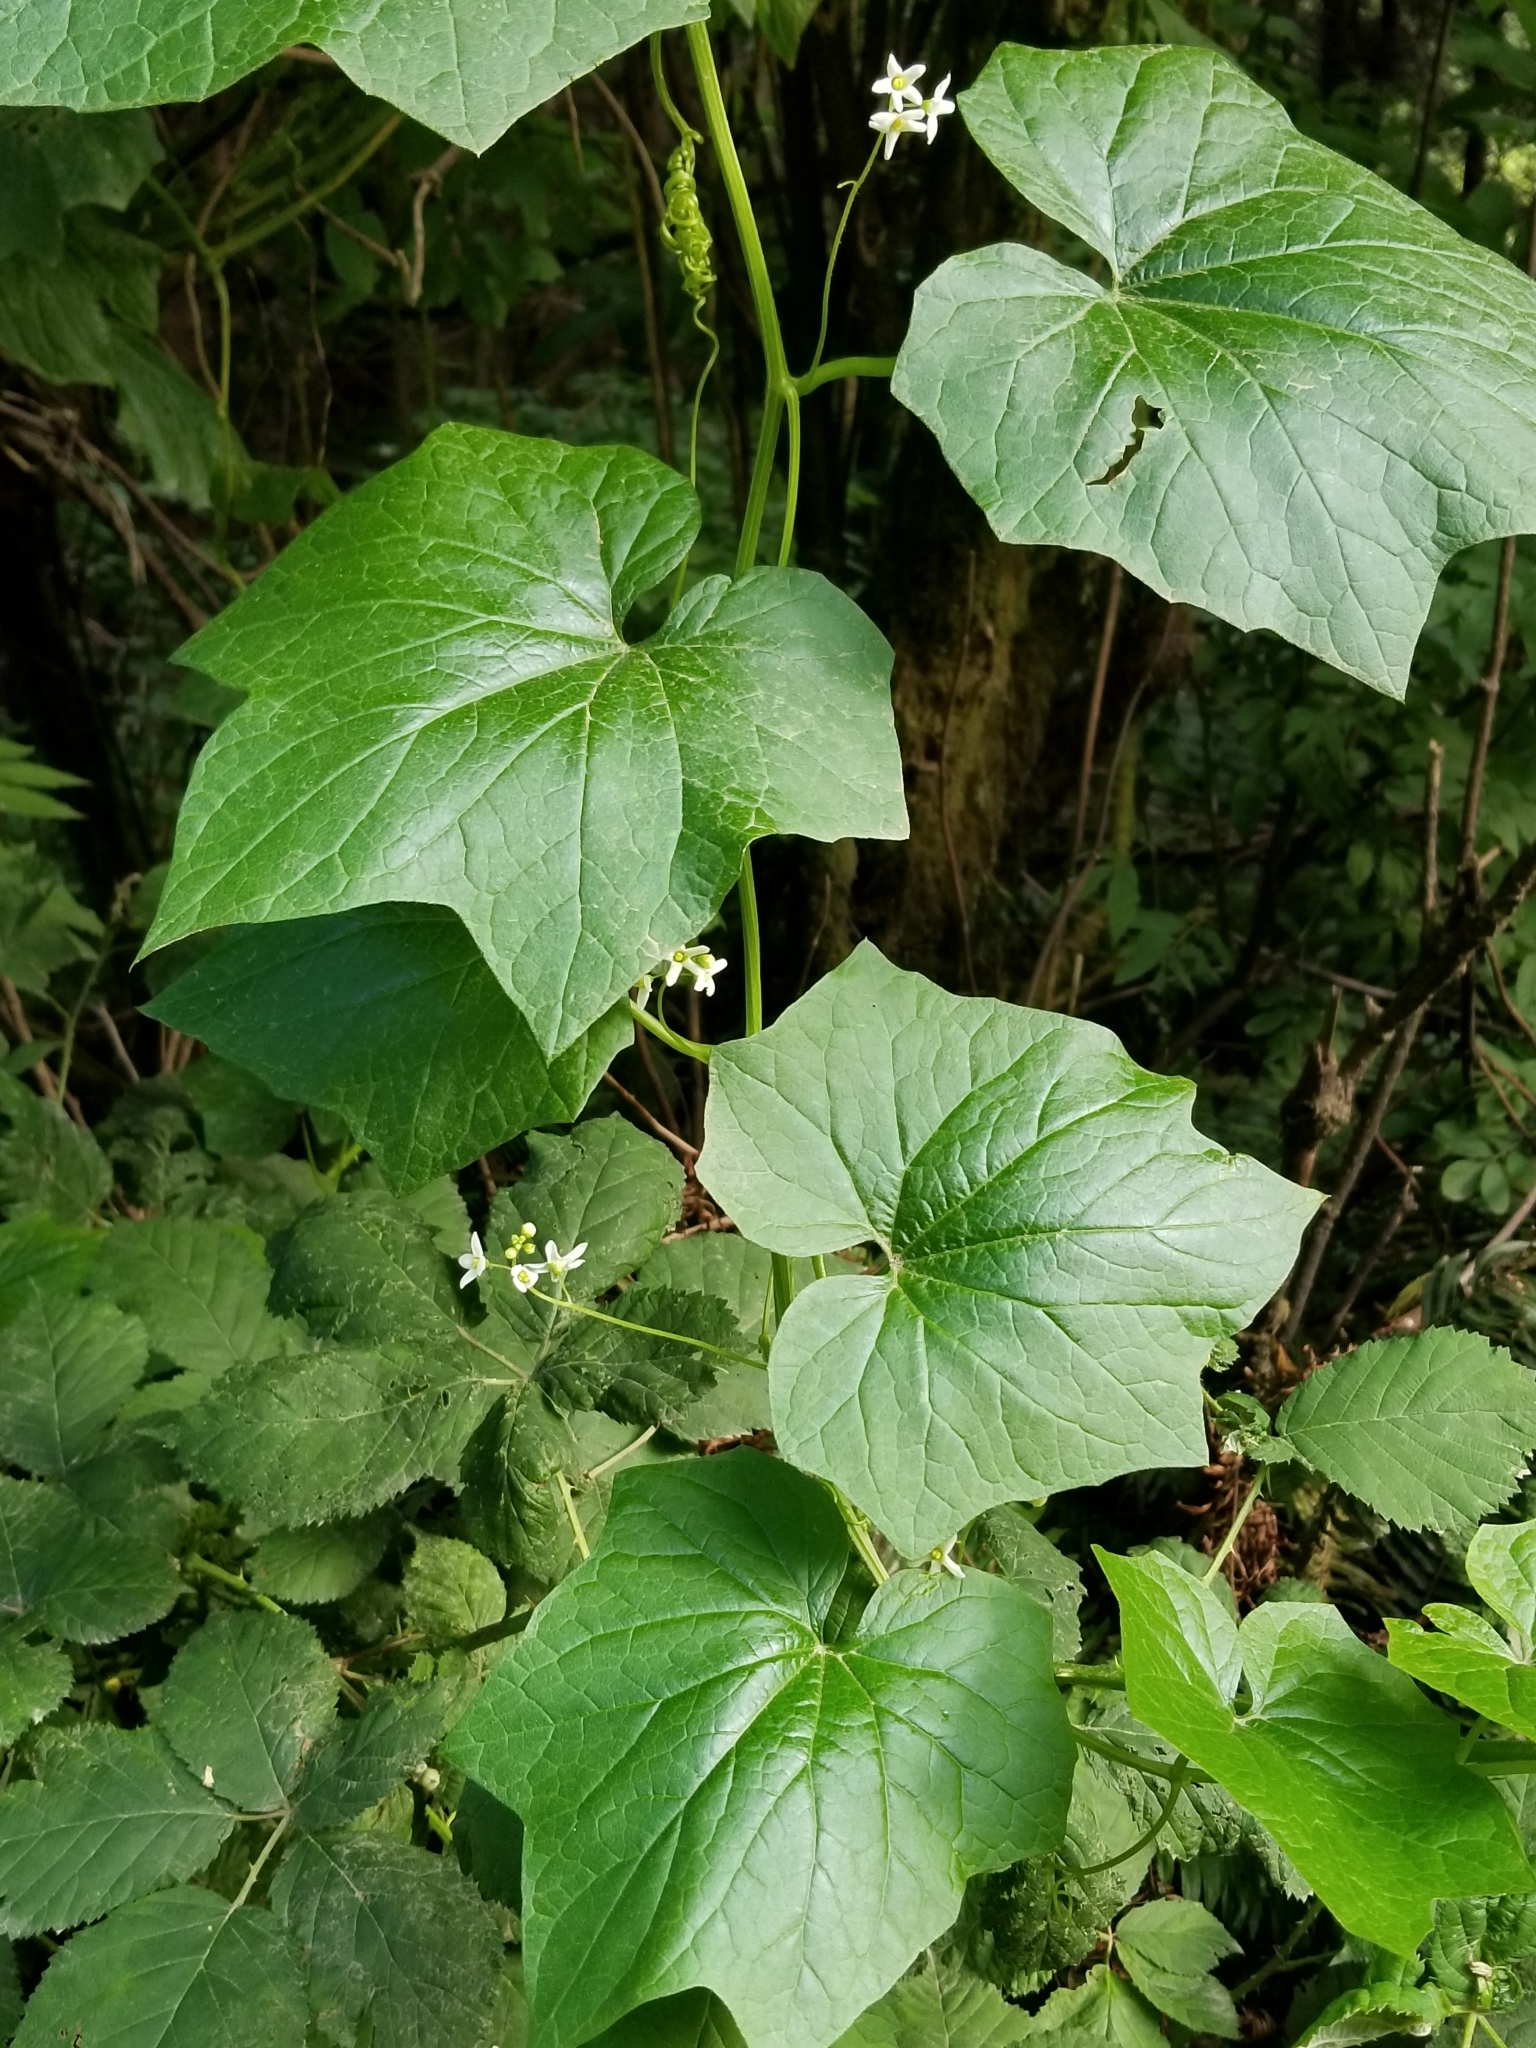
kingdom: Plantae
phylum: Tracheophyta
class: Magnoliopsida
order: Cucurbitales
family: Cucurbitaceae
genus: Marah
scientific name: Marah oregana
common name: Coastal manroot
